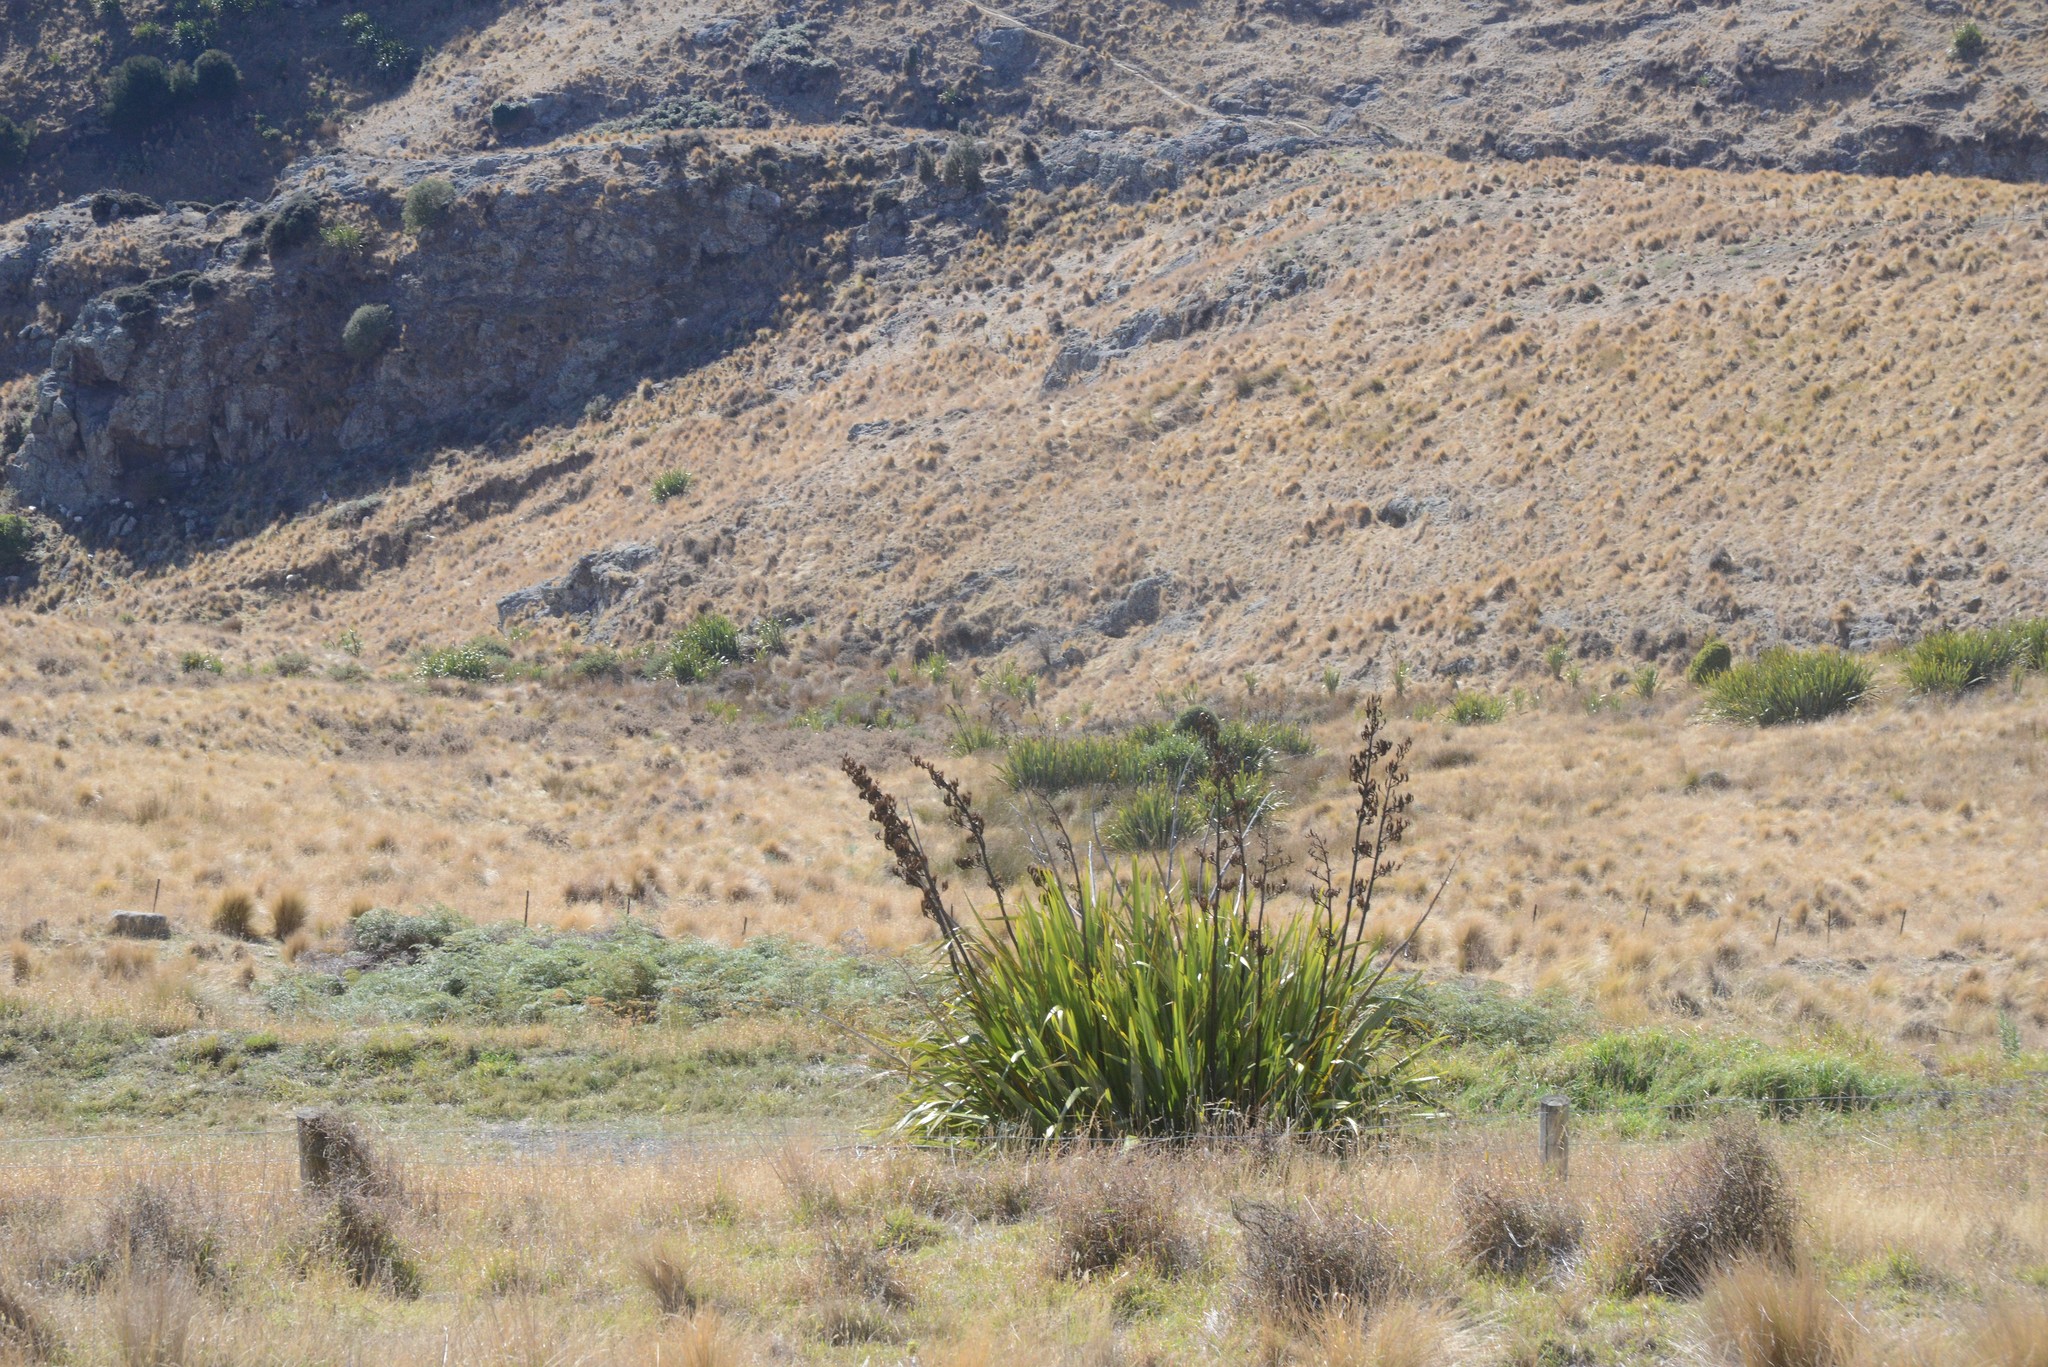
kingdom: Plantae
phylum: Tracheophyta
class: Liliopsida
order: Asparagales
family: Asphodelaceae
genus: Phormium
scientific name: Phormium tenax
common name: New zealand flax
